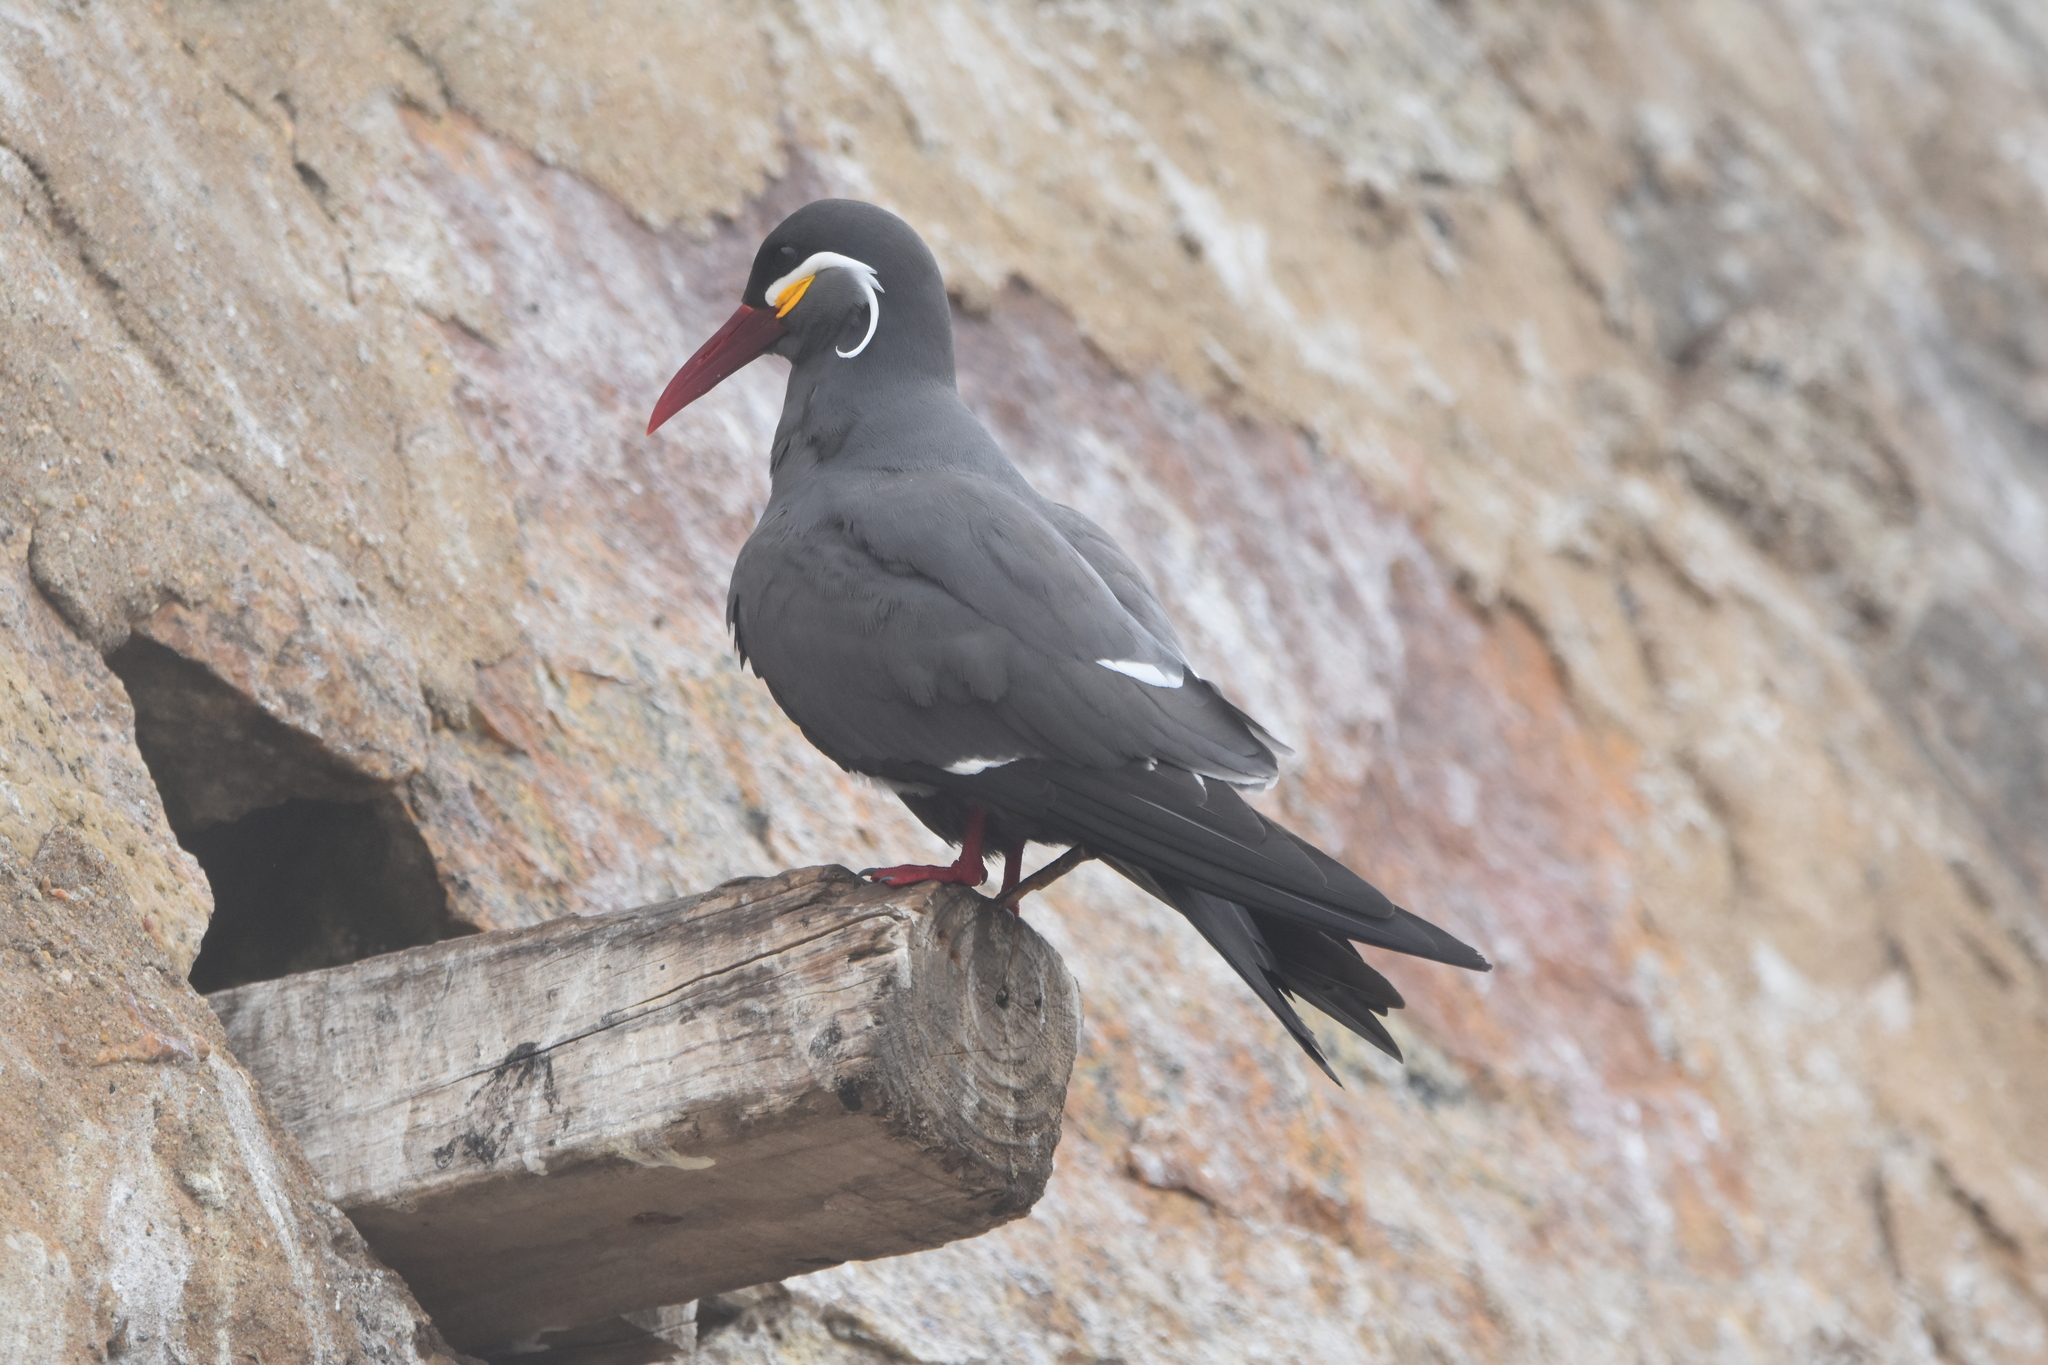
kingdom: Animalia
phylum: Chordata
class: Aves
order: Charadriiformes
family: Laridae
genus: Larosterna
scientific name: Larosterna inca
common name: Inca tern
